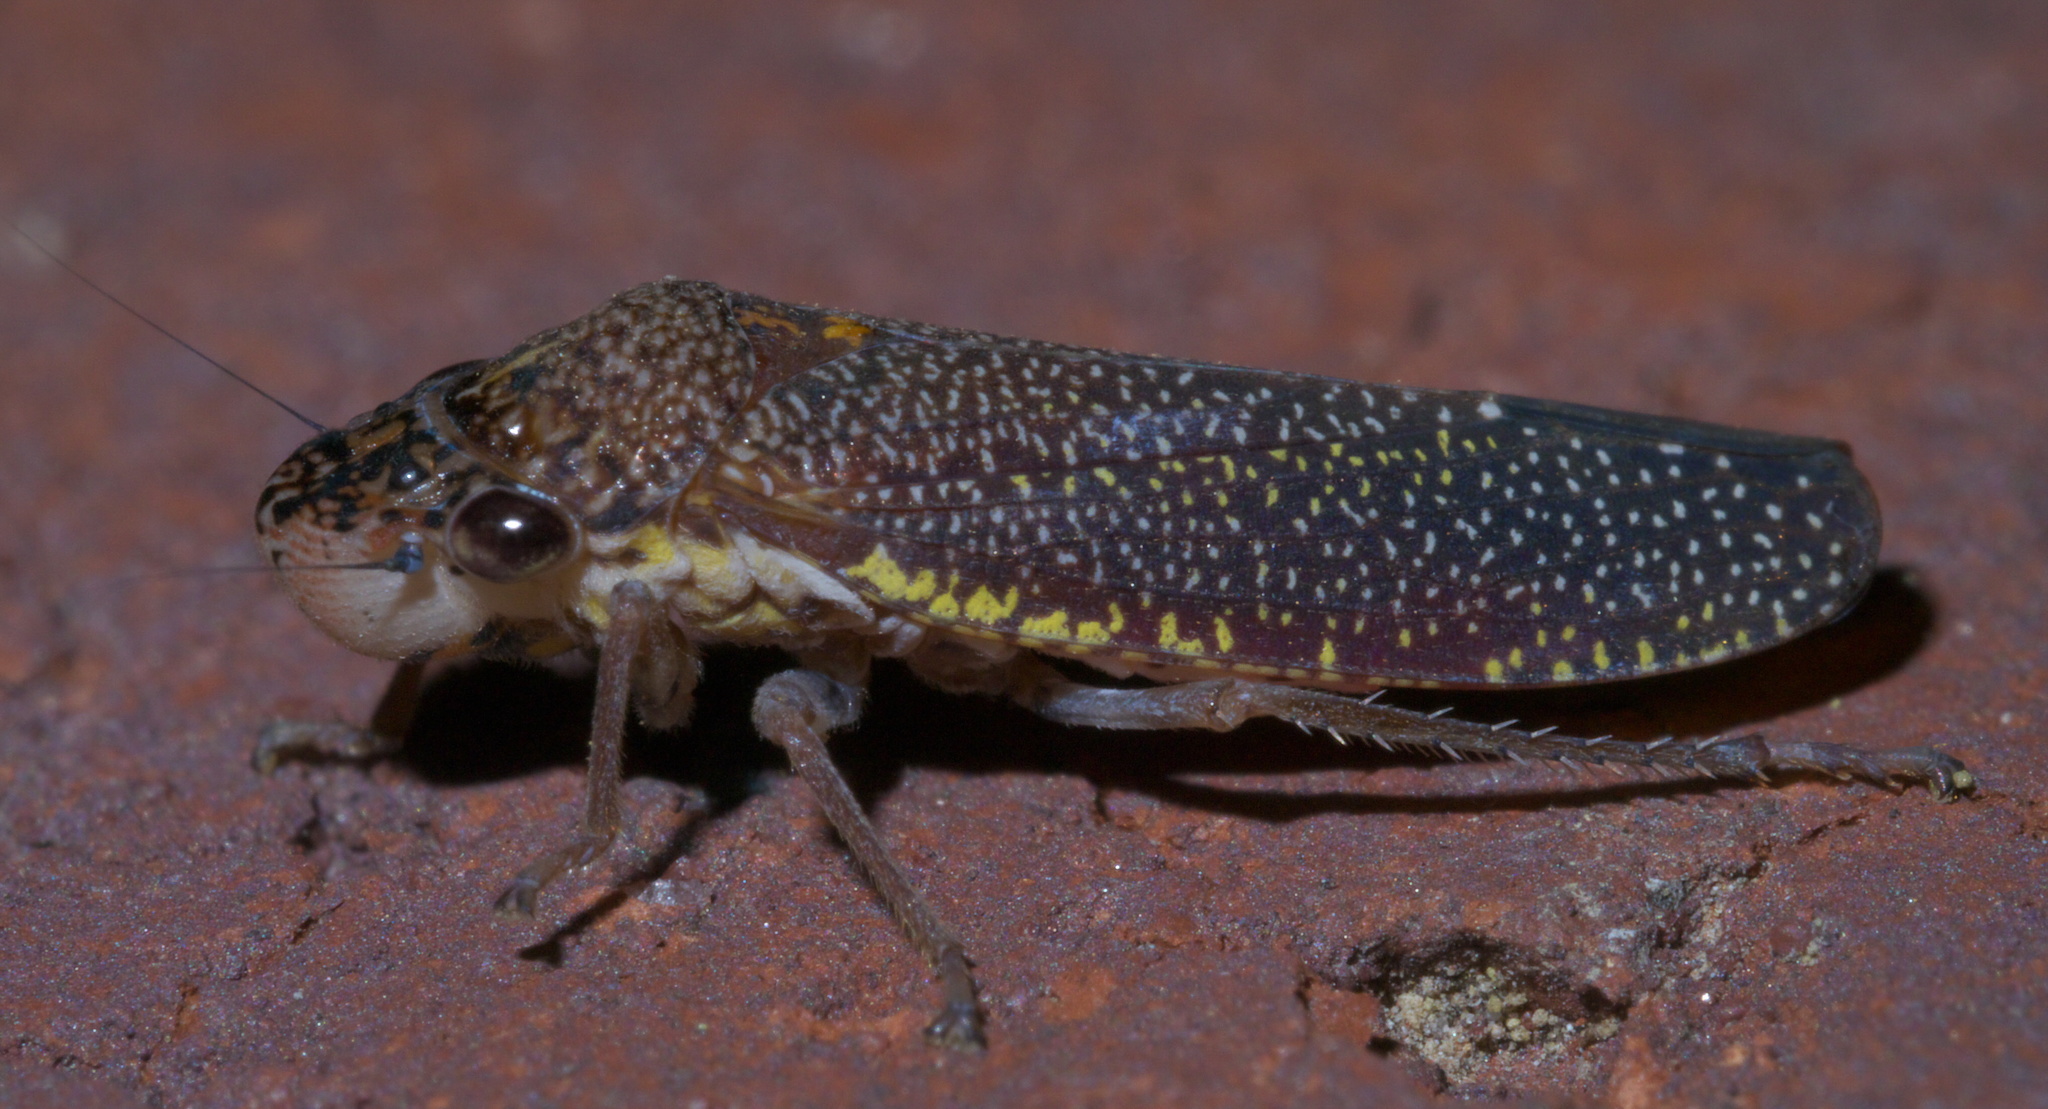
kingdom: Animalia
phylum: Arthropoda
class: Insecta
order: Hemiptera
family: Cicadellidae
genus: Paraulacizes
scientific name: Paraulacizes irrorata
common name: Speckled sharpshooter
